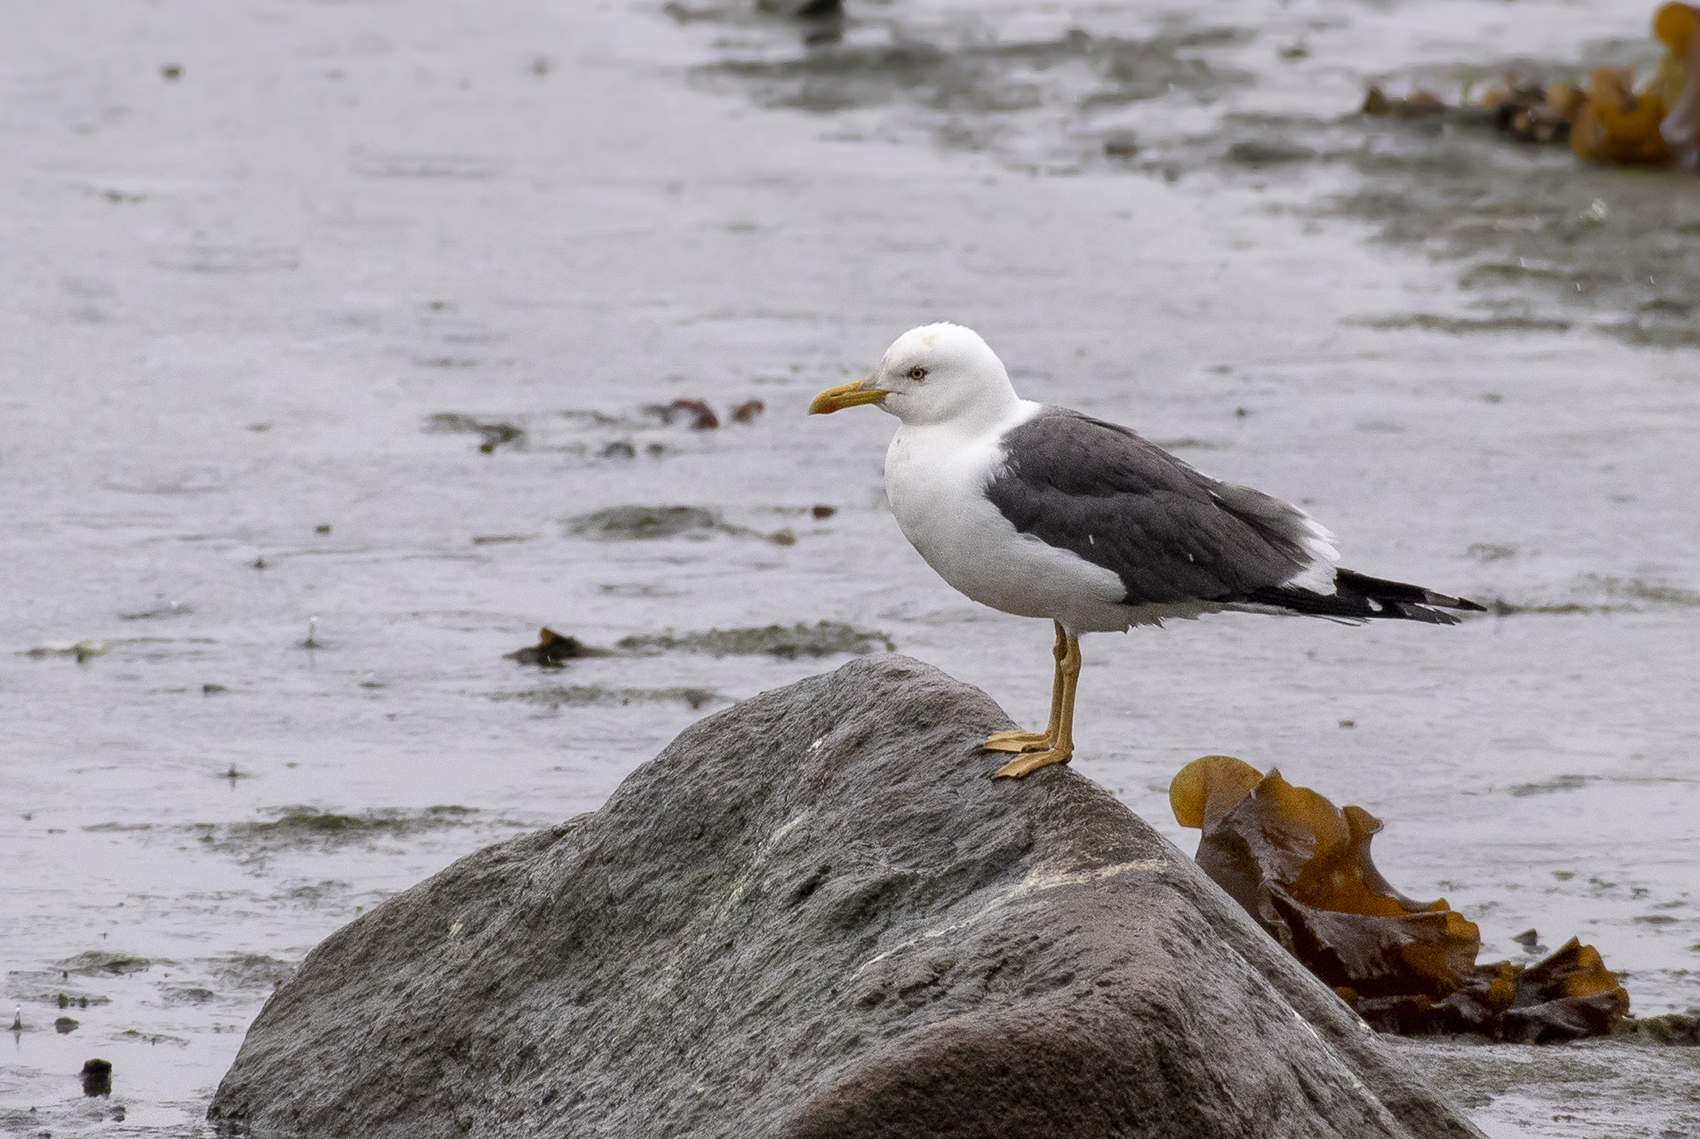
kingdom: Animalia
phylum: Chordata
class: Aves
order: Charadriiformes
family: Laridae
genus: Larus
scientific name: Larus fuscus
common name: Lesser black-backed gull
